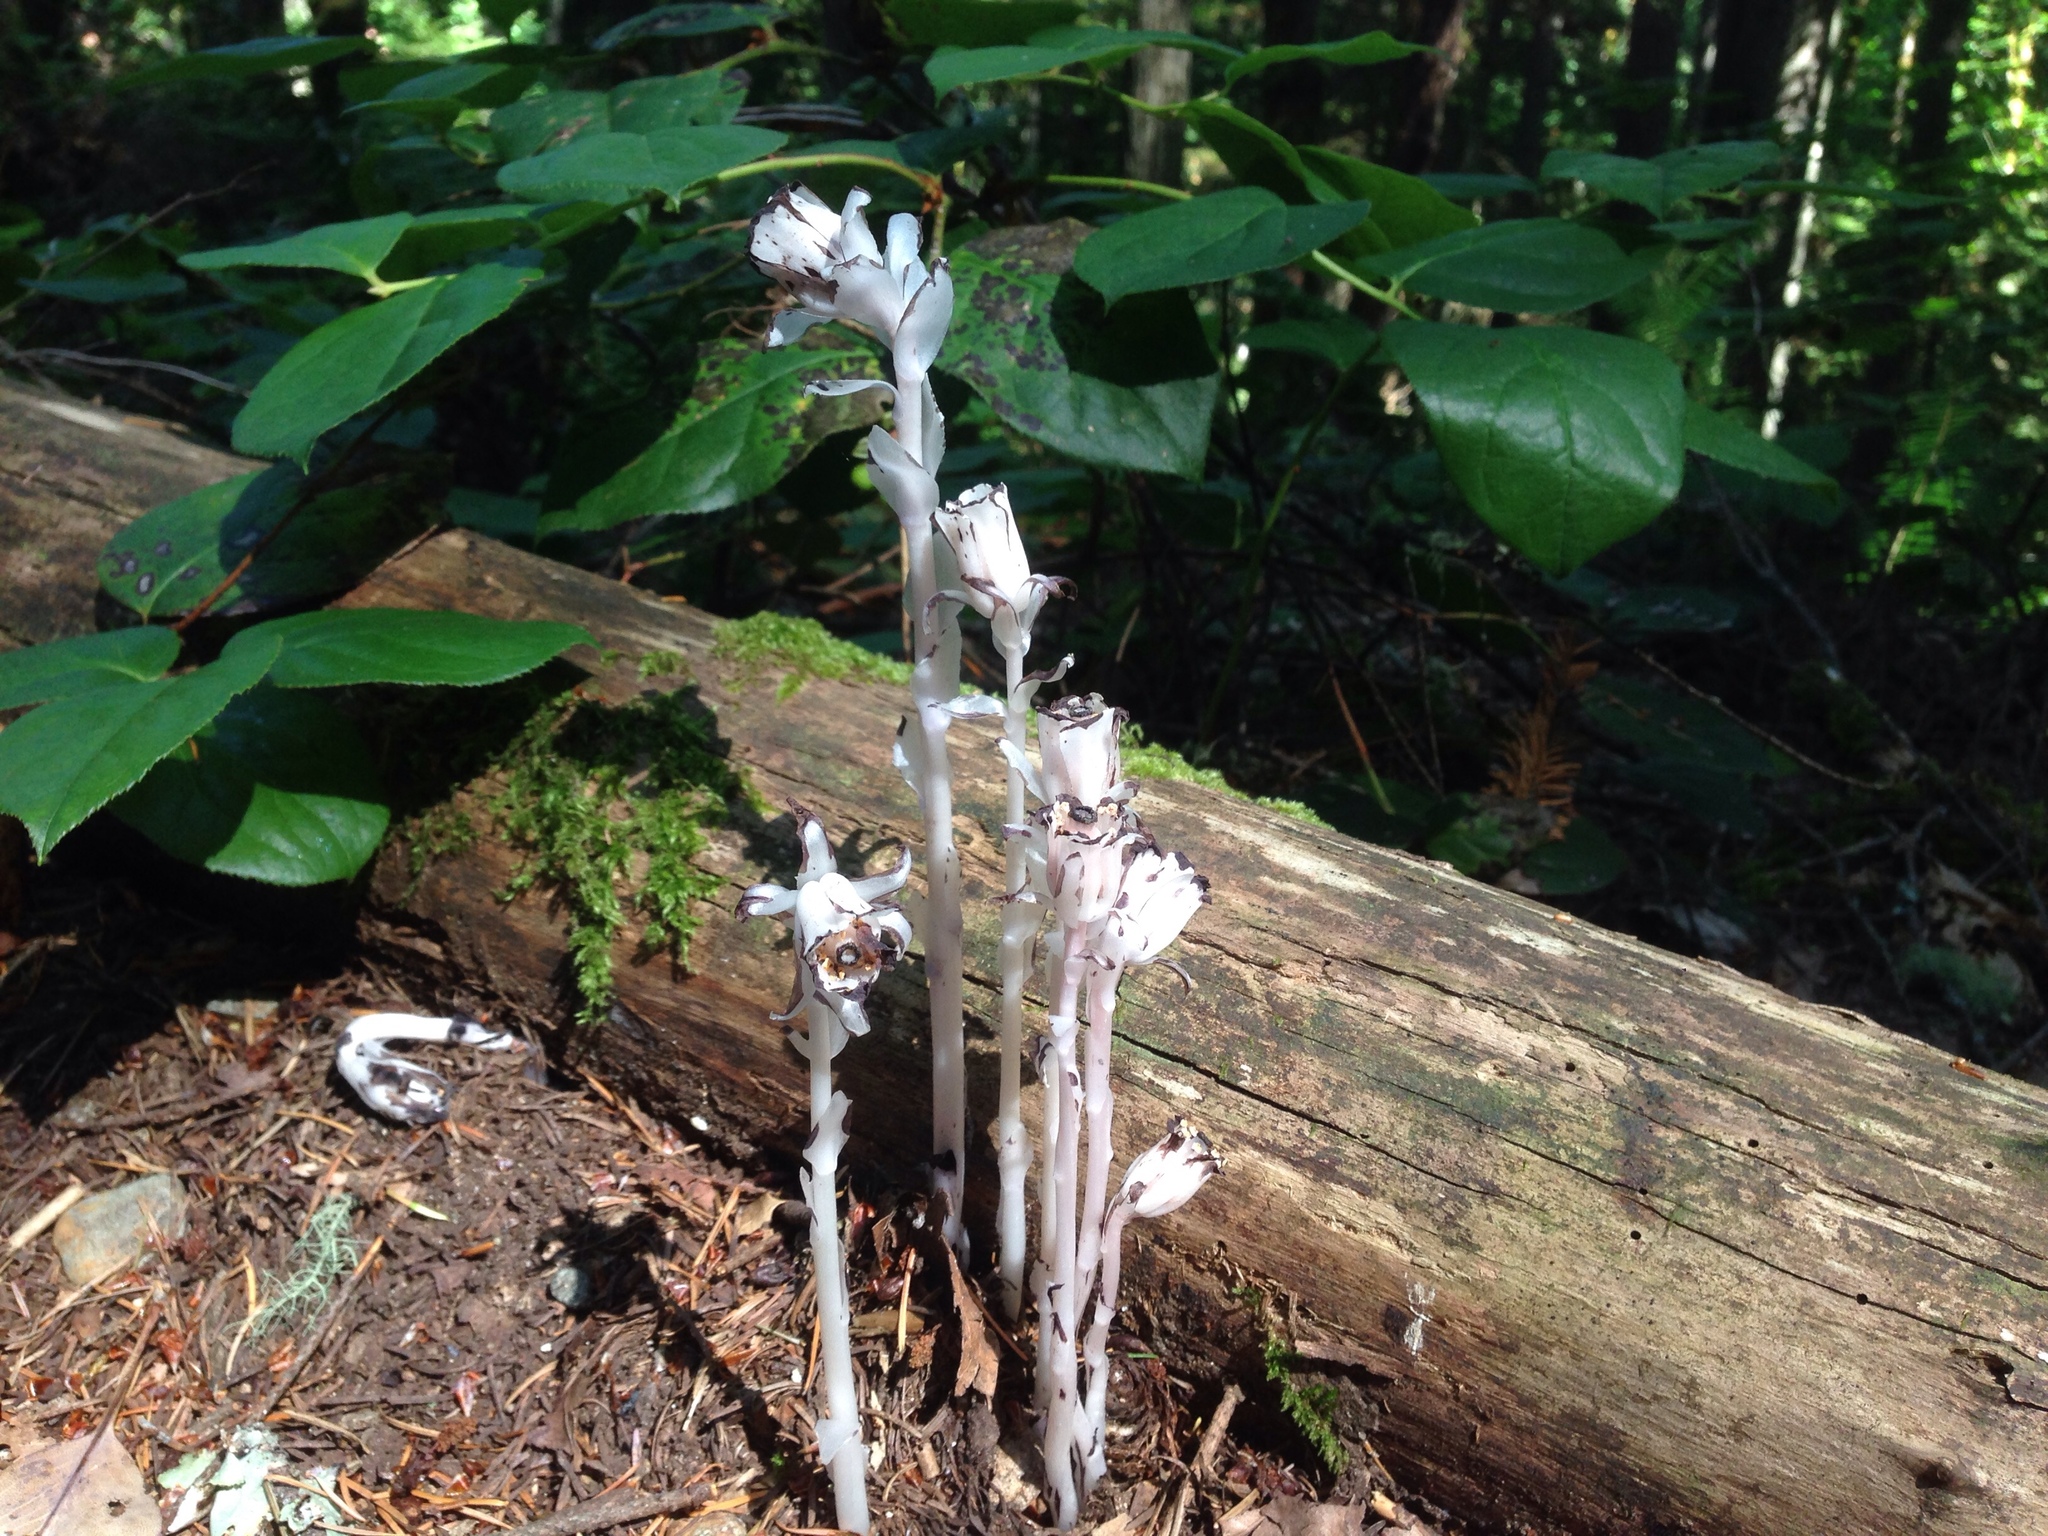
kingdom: Plantae
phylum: Tracheophyta
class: Magnoliopsida
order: Ericales
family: Ericaceae
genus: Monotropa
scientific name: Monotropa uniflora
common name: Convulsion root
